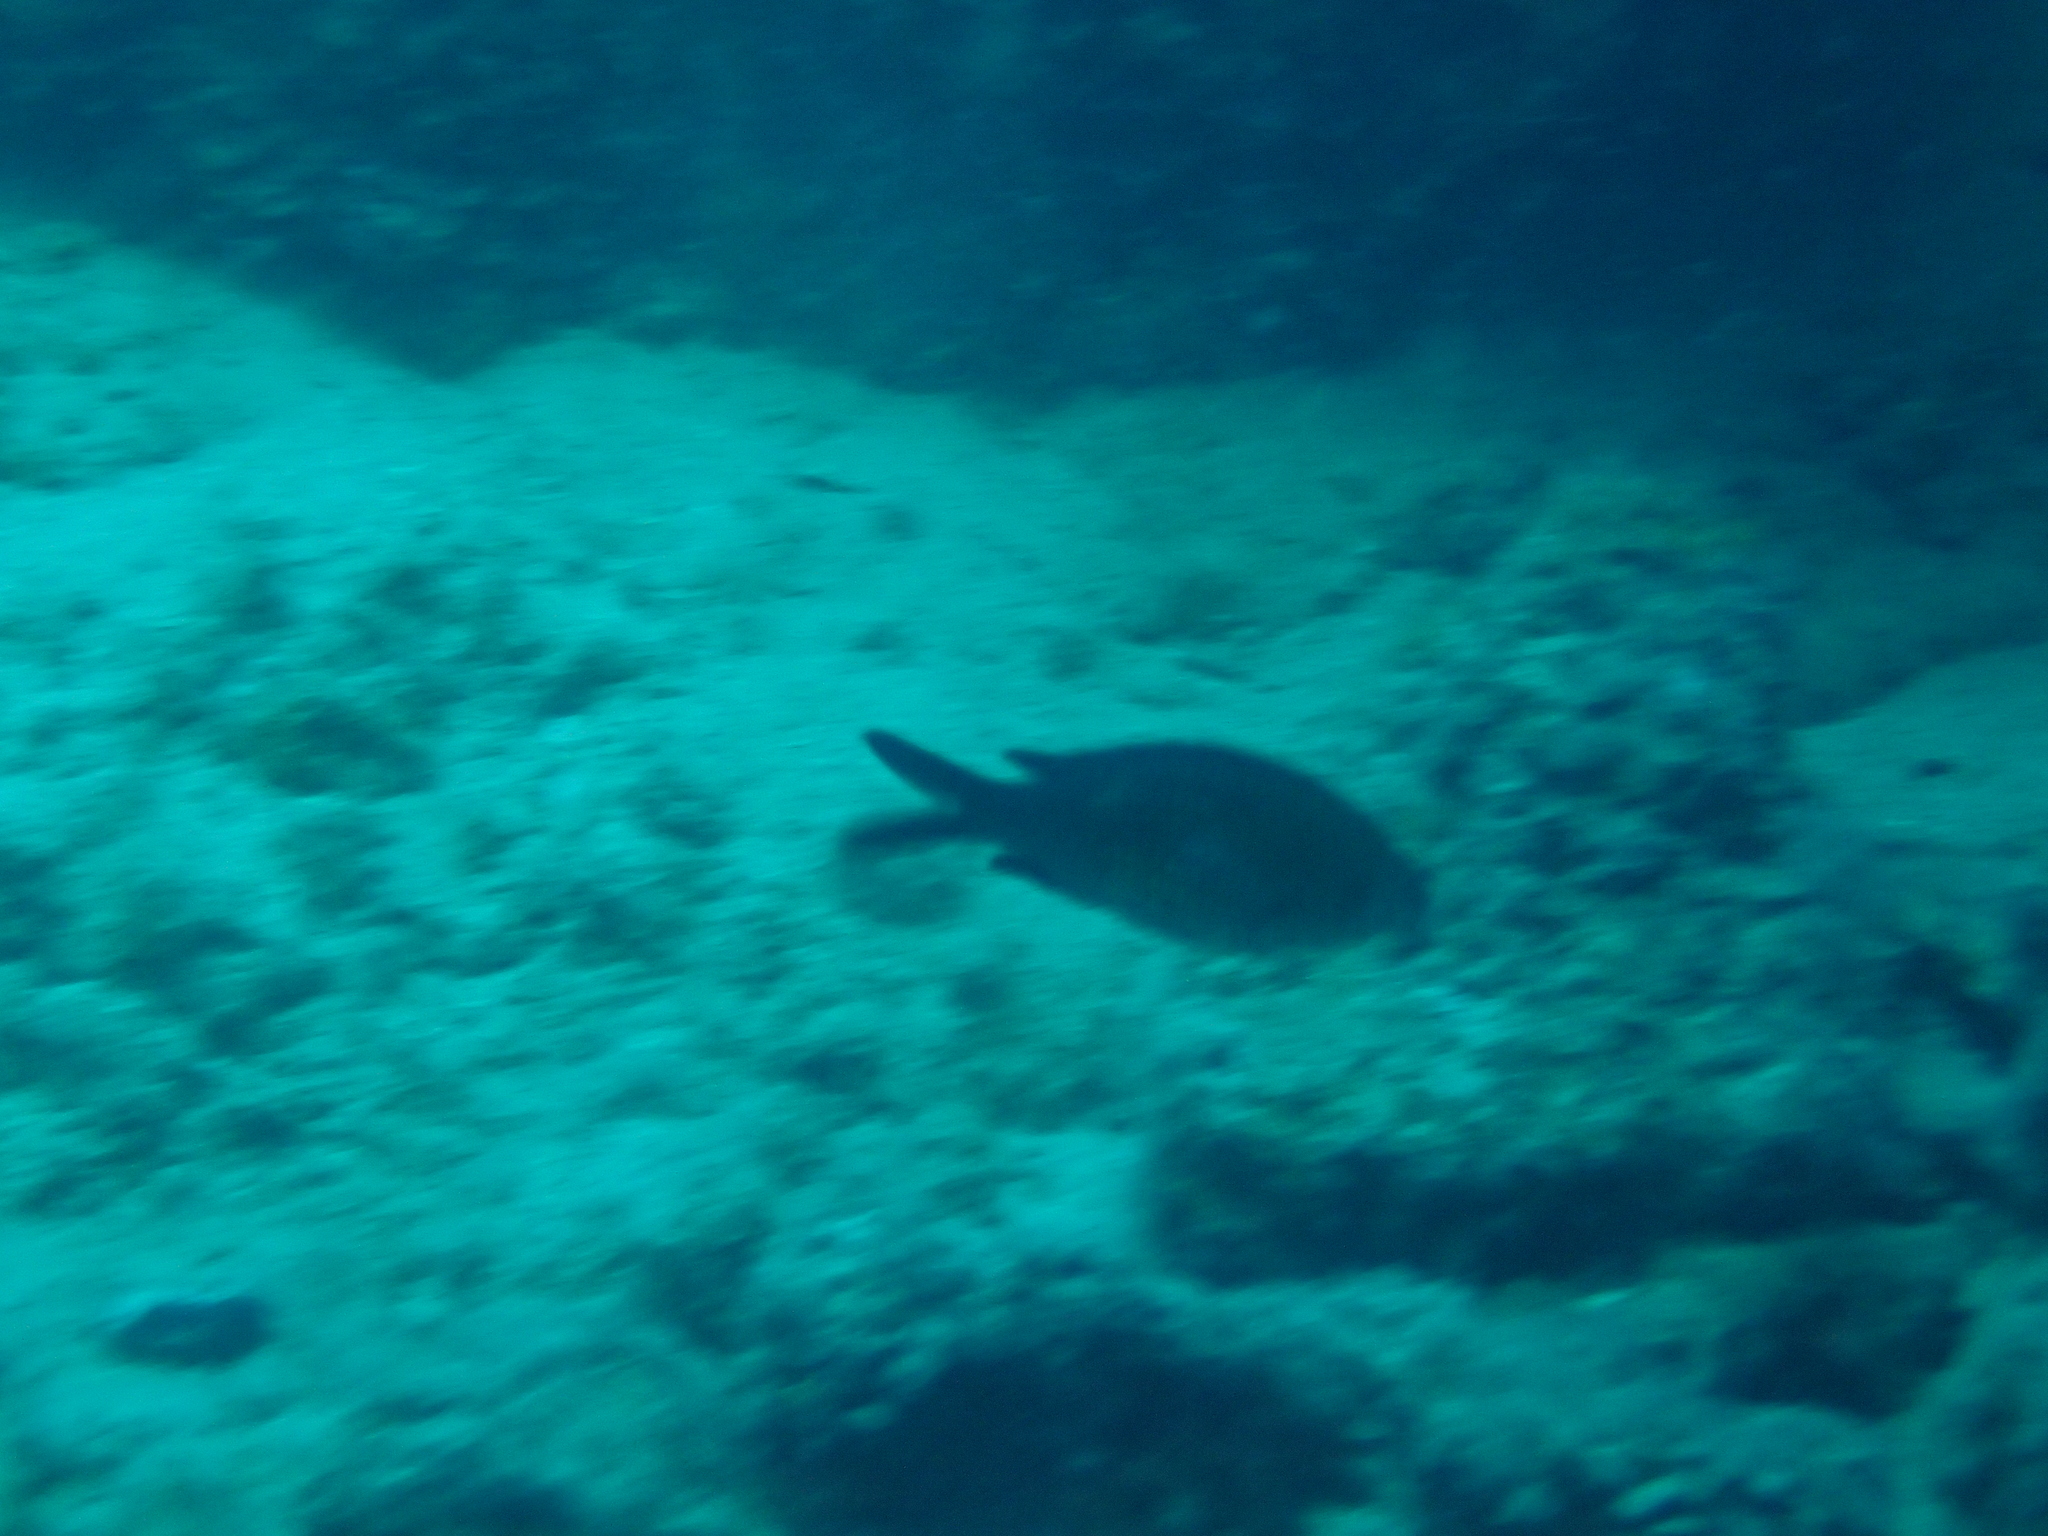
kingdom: Animalia
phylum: Chordata
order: Perciformes
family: Pomacentridae
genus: Chromis
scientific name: Chromis chromis
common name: Damselfish
